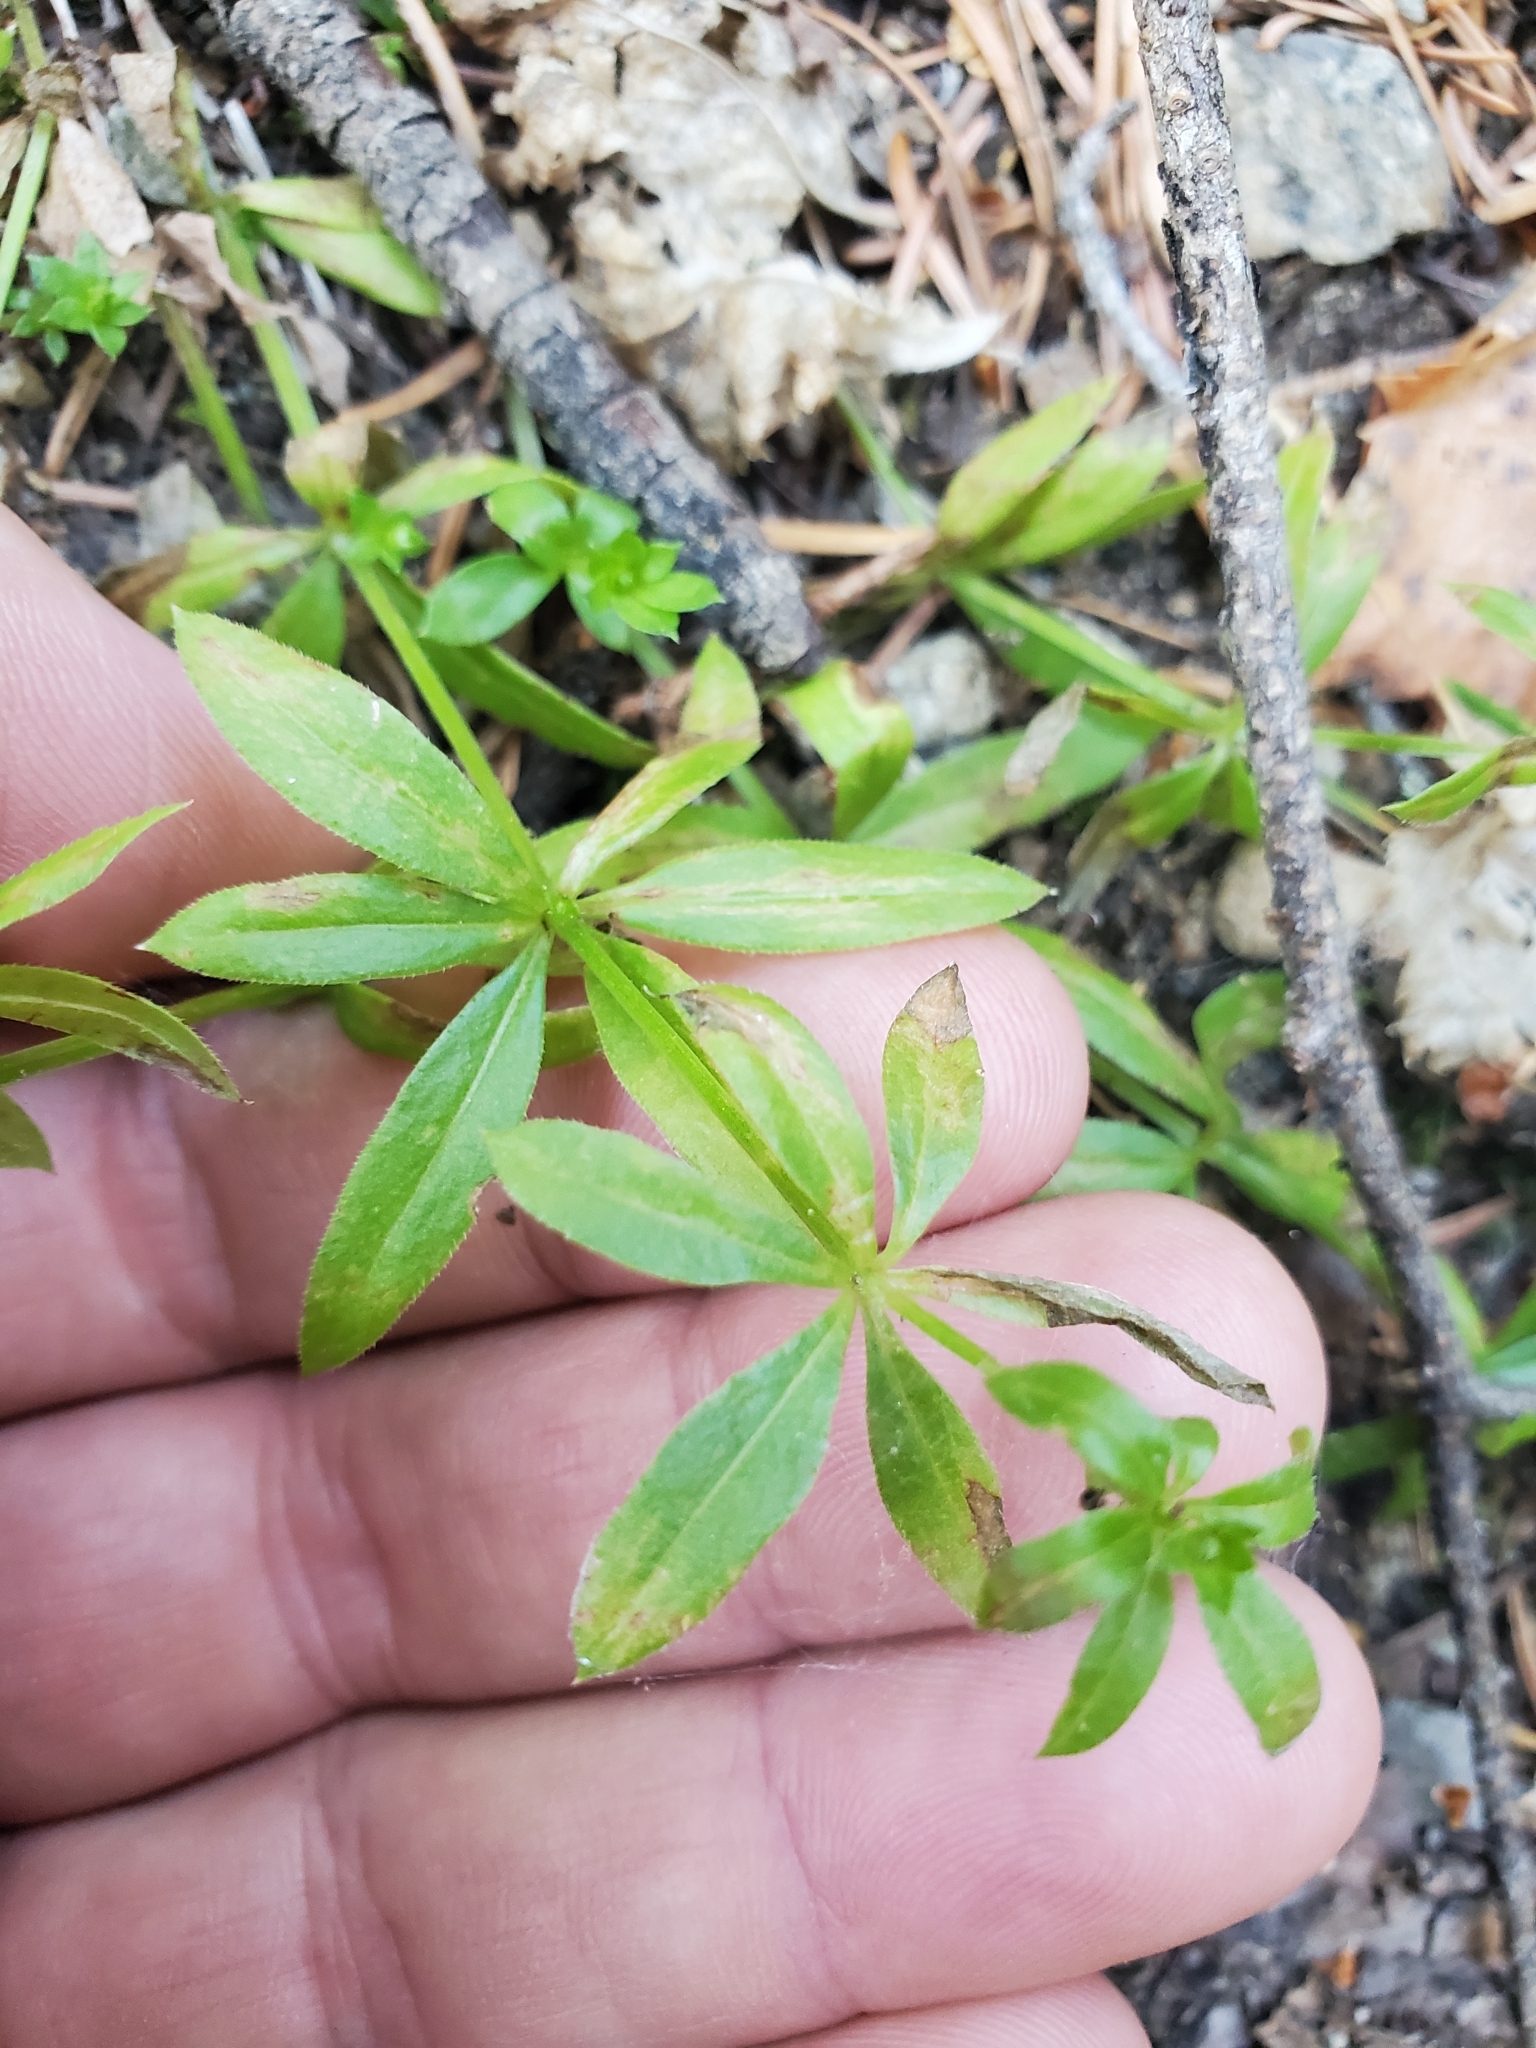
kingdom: Plantae
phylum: Tracheophyta
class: Magnoliopsida
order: Gentianales
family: Rubiaceae
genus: Galium
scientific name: Galium triflorum
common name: Fragrant bedstraw
